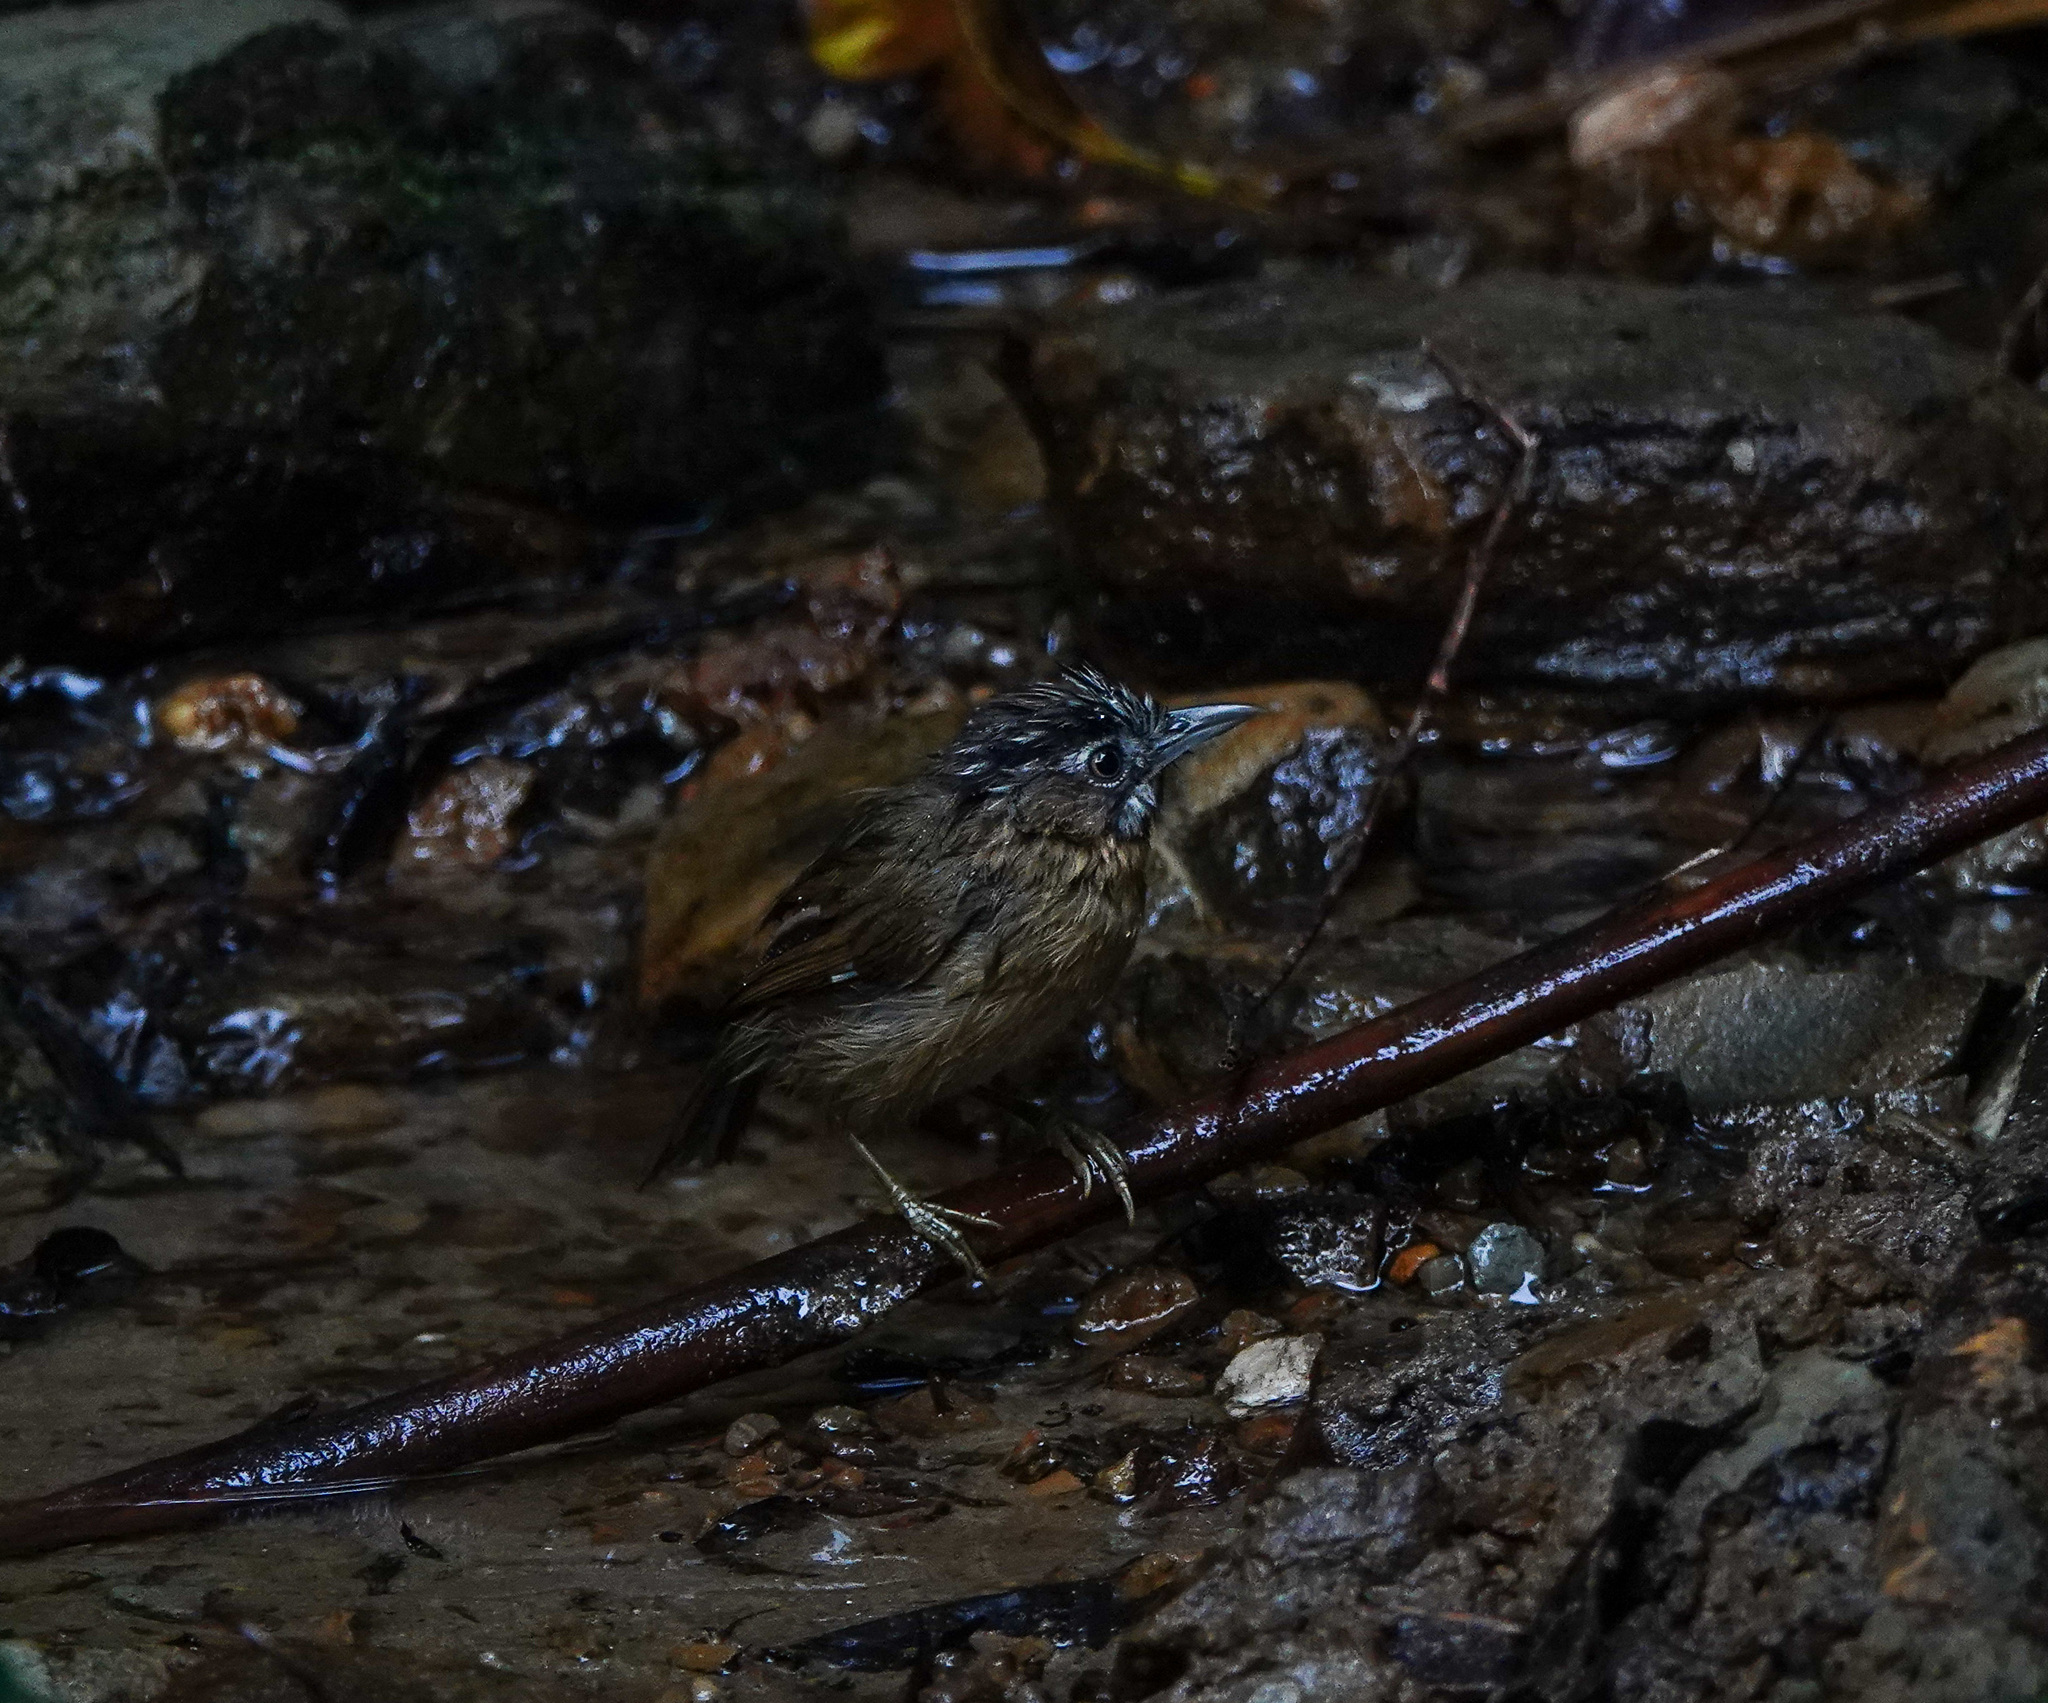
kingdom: Animalia
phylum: Chordata
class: Aves
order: Passeriformes
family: Timaliidae
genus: Stachyris
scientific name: Stachyris nigriceps
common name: Grey-throated babbler
